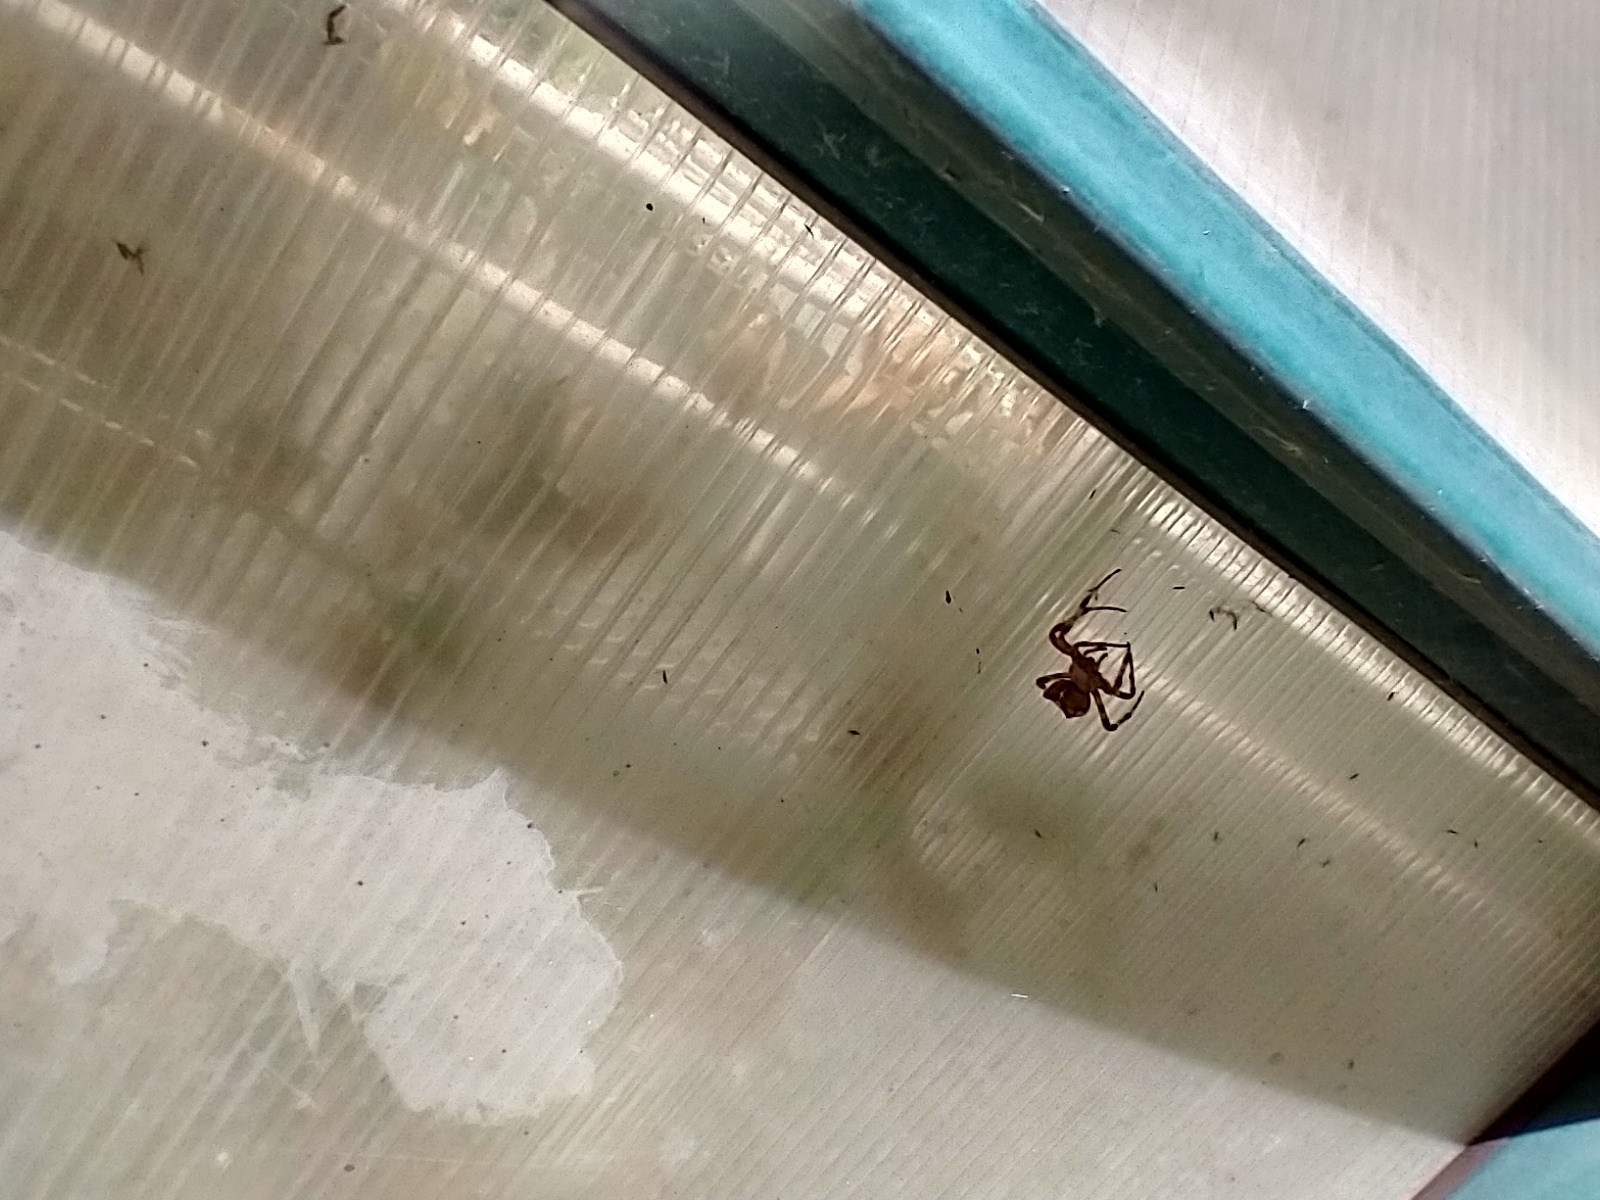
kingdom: Animalia
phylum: Arthropoda
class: Arachnida
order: Araneae
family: Araneidae
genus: Araneus
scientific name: Araneus gemmoides
